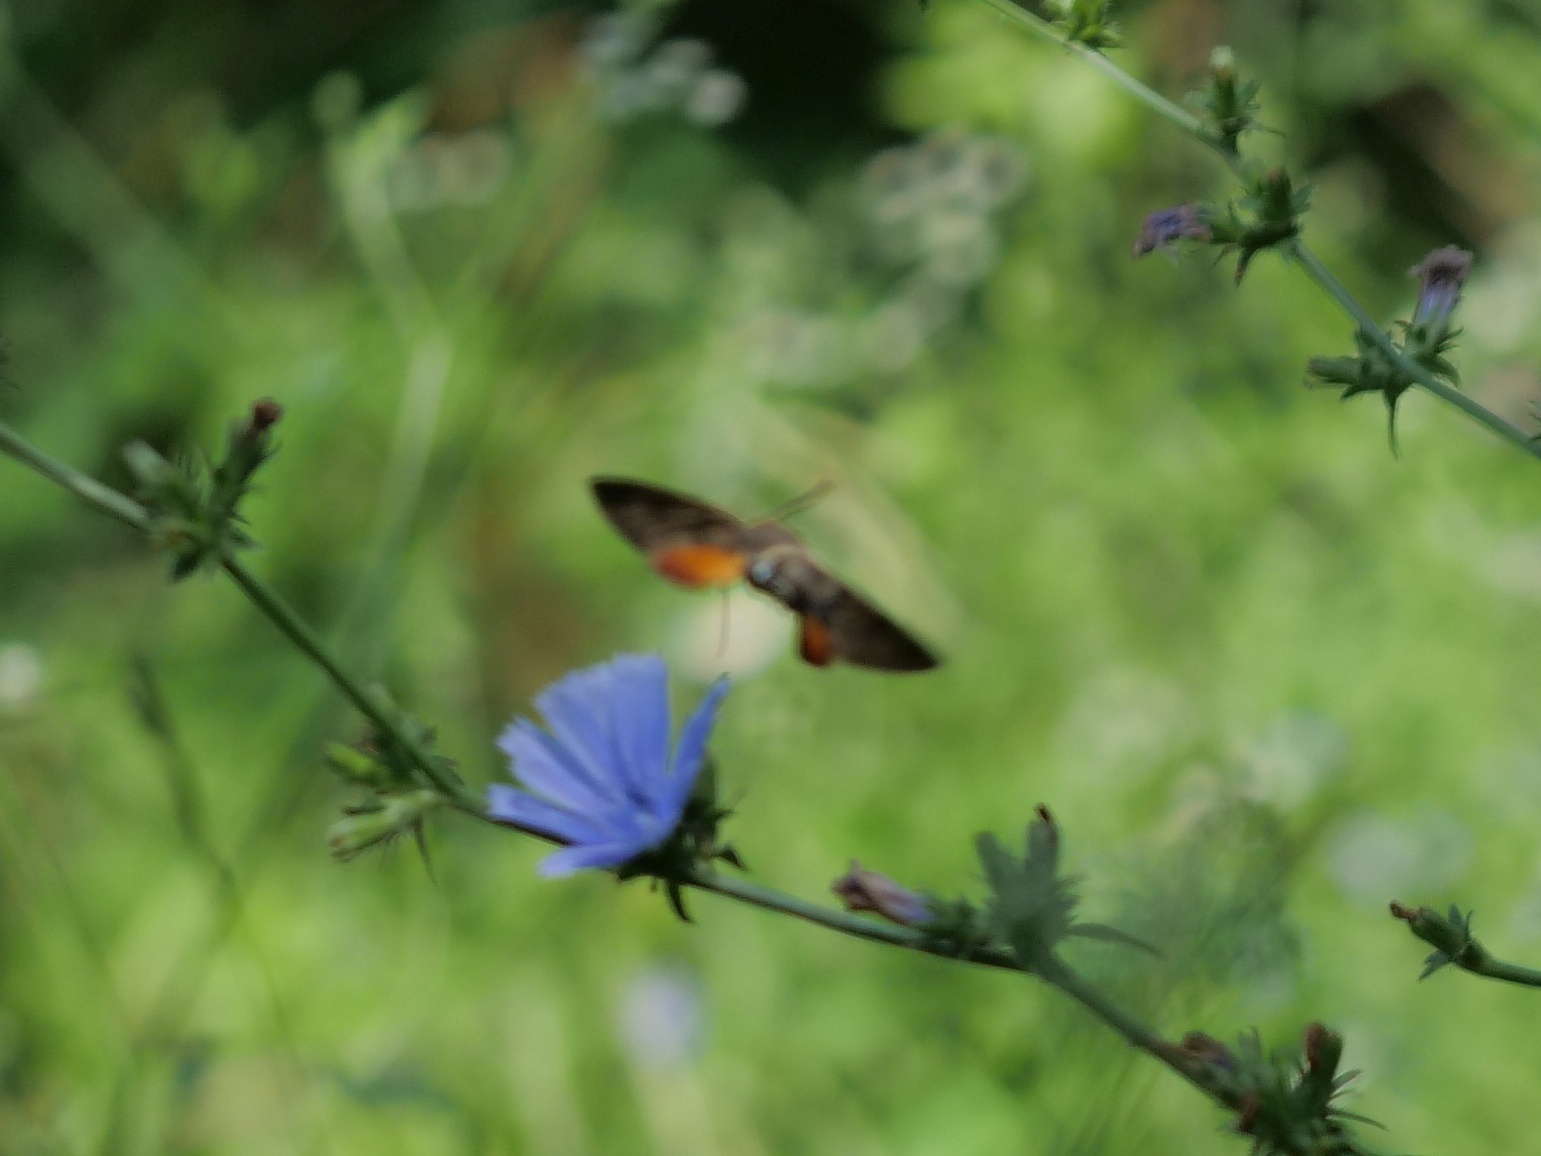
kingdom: Animalia
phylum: Arthropoda
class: Insecta
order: Lepidoptera
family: Sphingidae
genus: Macroglossum
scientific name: Macroglossum stellatarum
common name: Humming-bird hawk-moth
